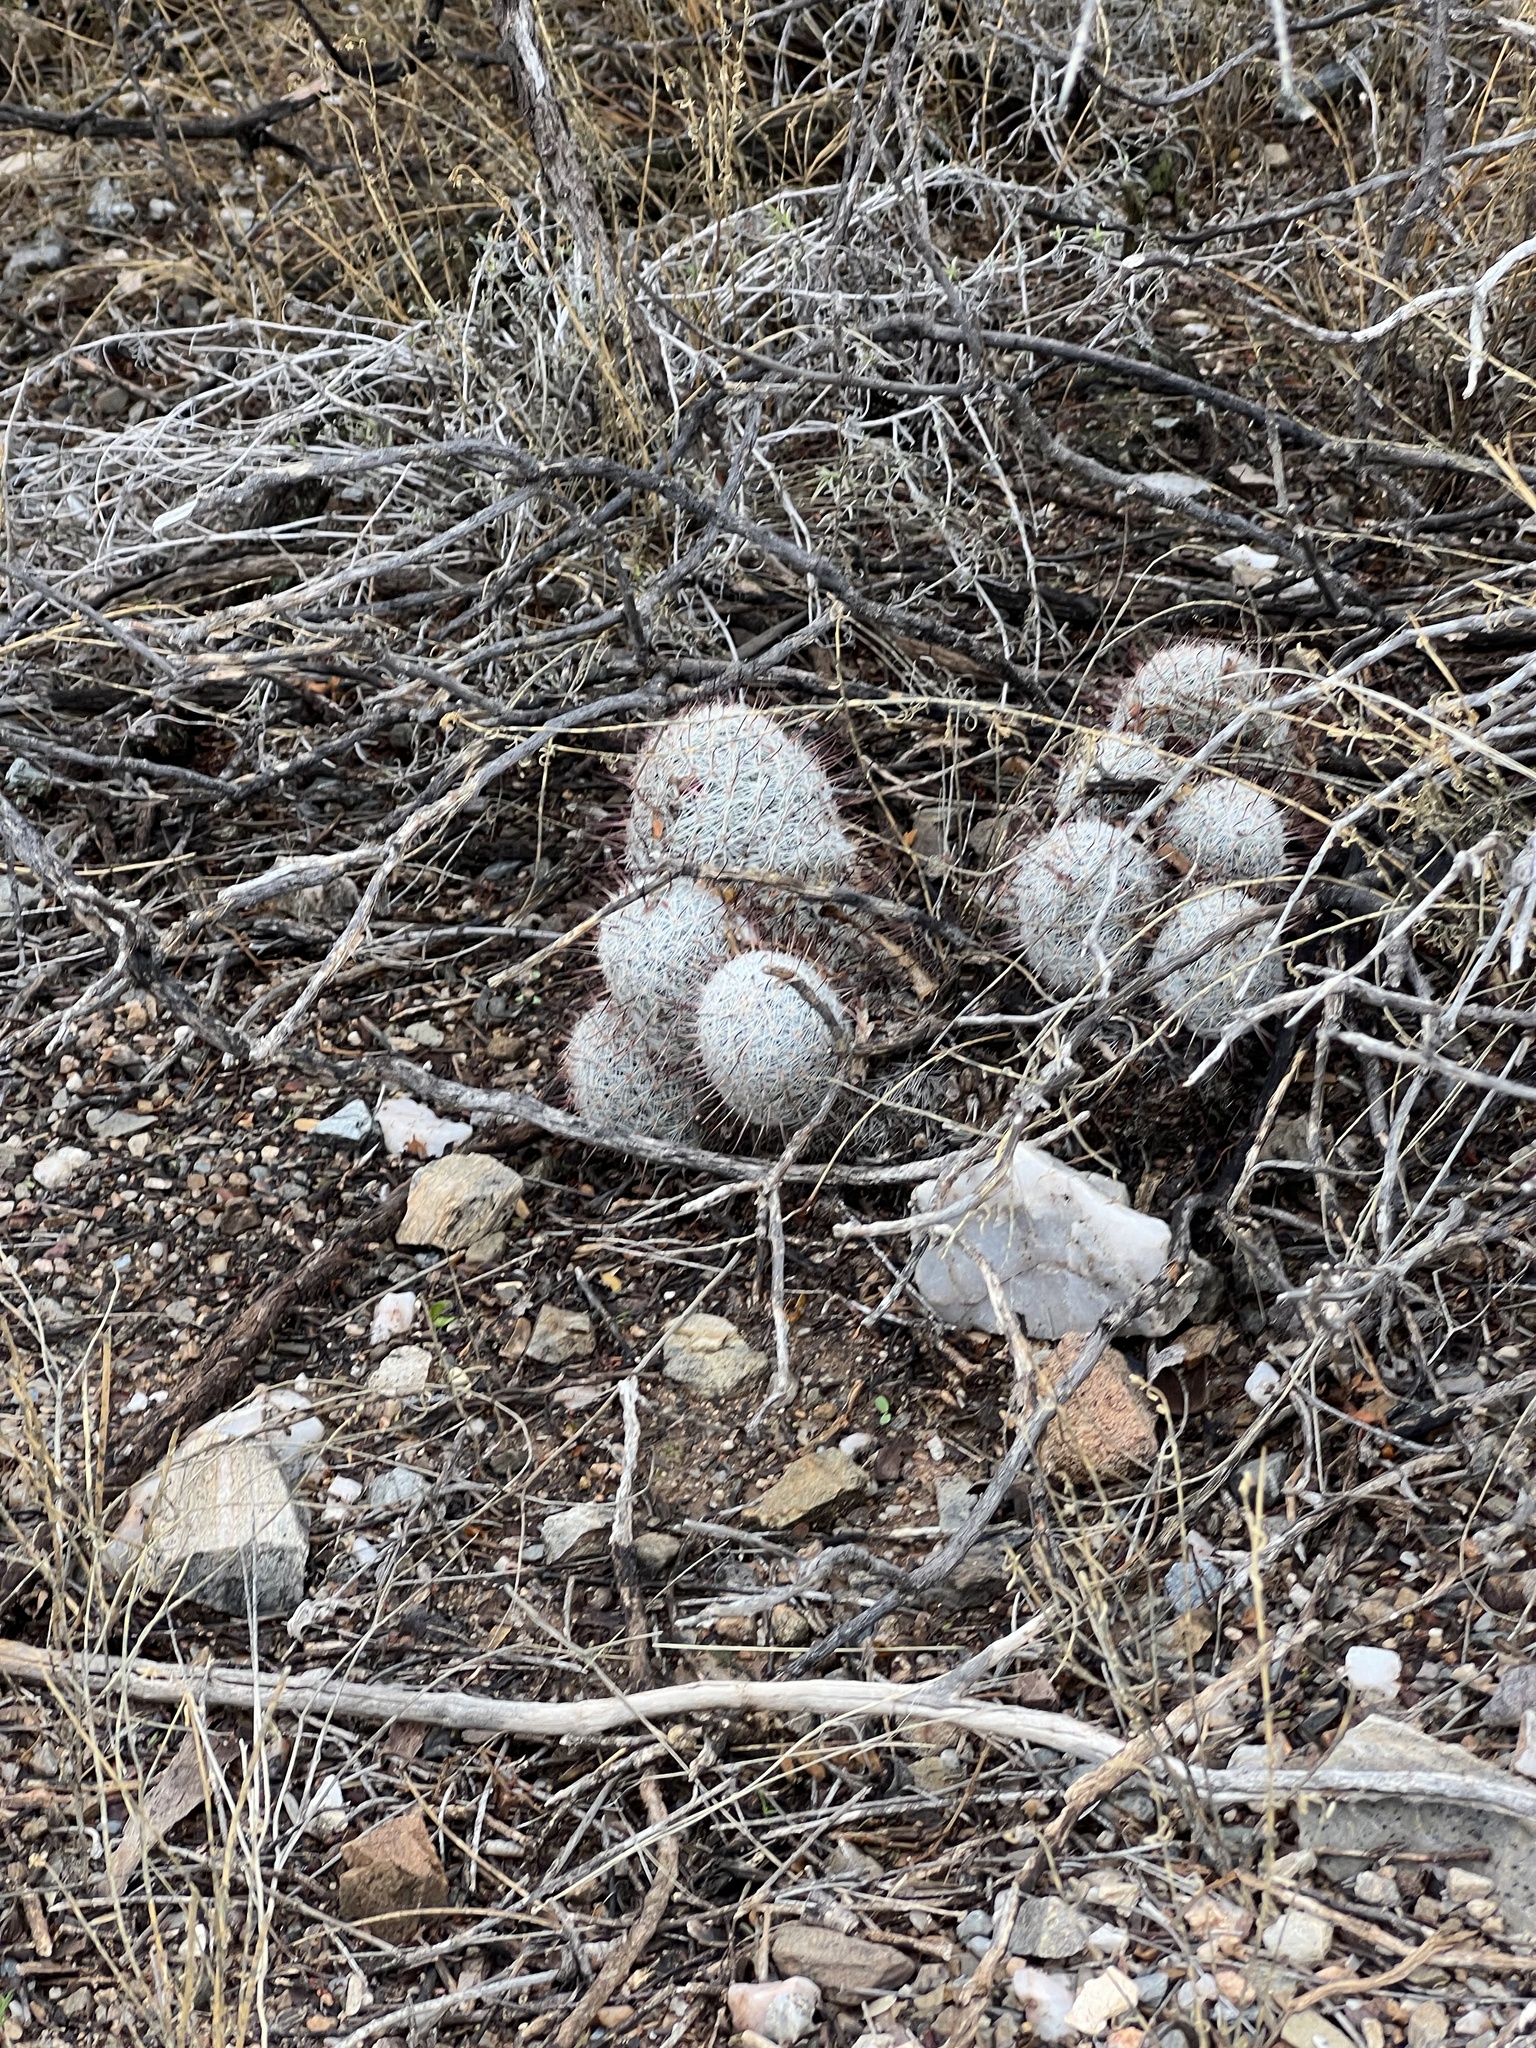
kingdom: Plantae
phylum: Tracheophyta
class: Magnoliopsida
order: Caryophyllales
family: Cactaceae
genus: Cochemiea
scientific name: Cochemiea grahamii
